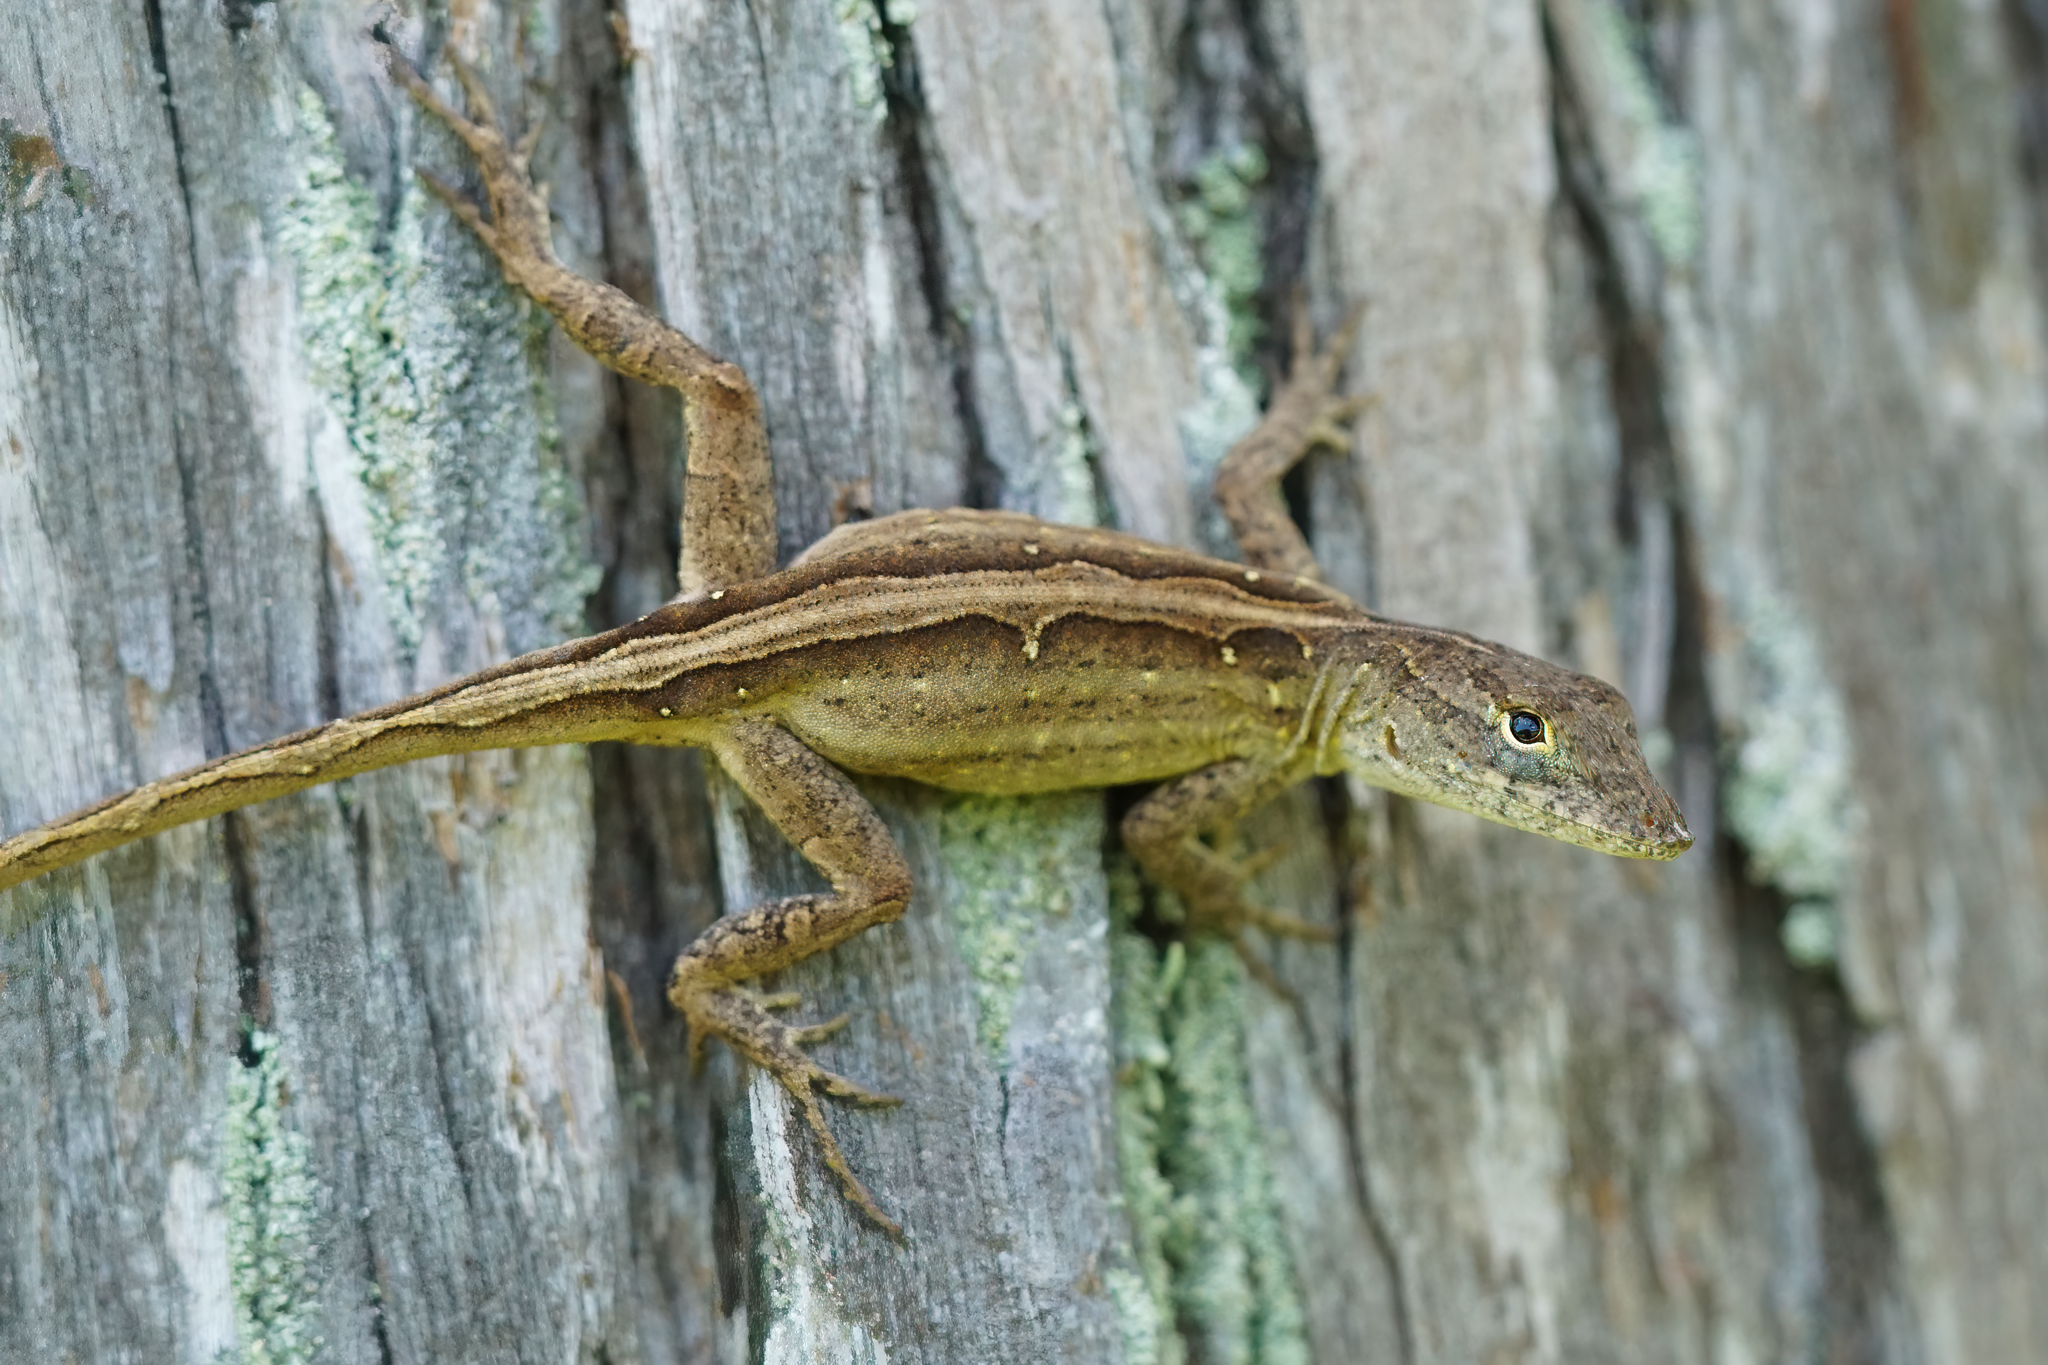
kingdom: Animalia
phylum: Chordata
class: Squamata
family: Dactyloidae
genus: Anolis
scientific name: Anolis sagrei
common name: Brown anole
